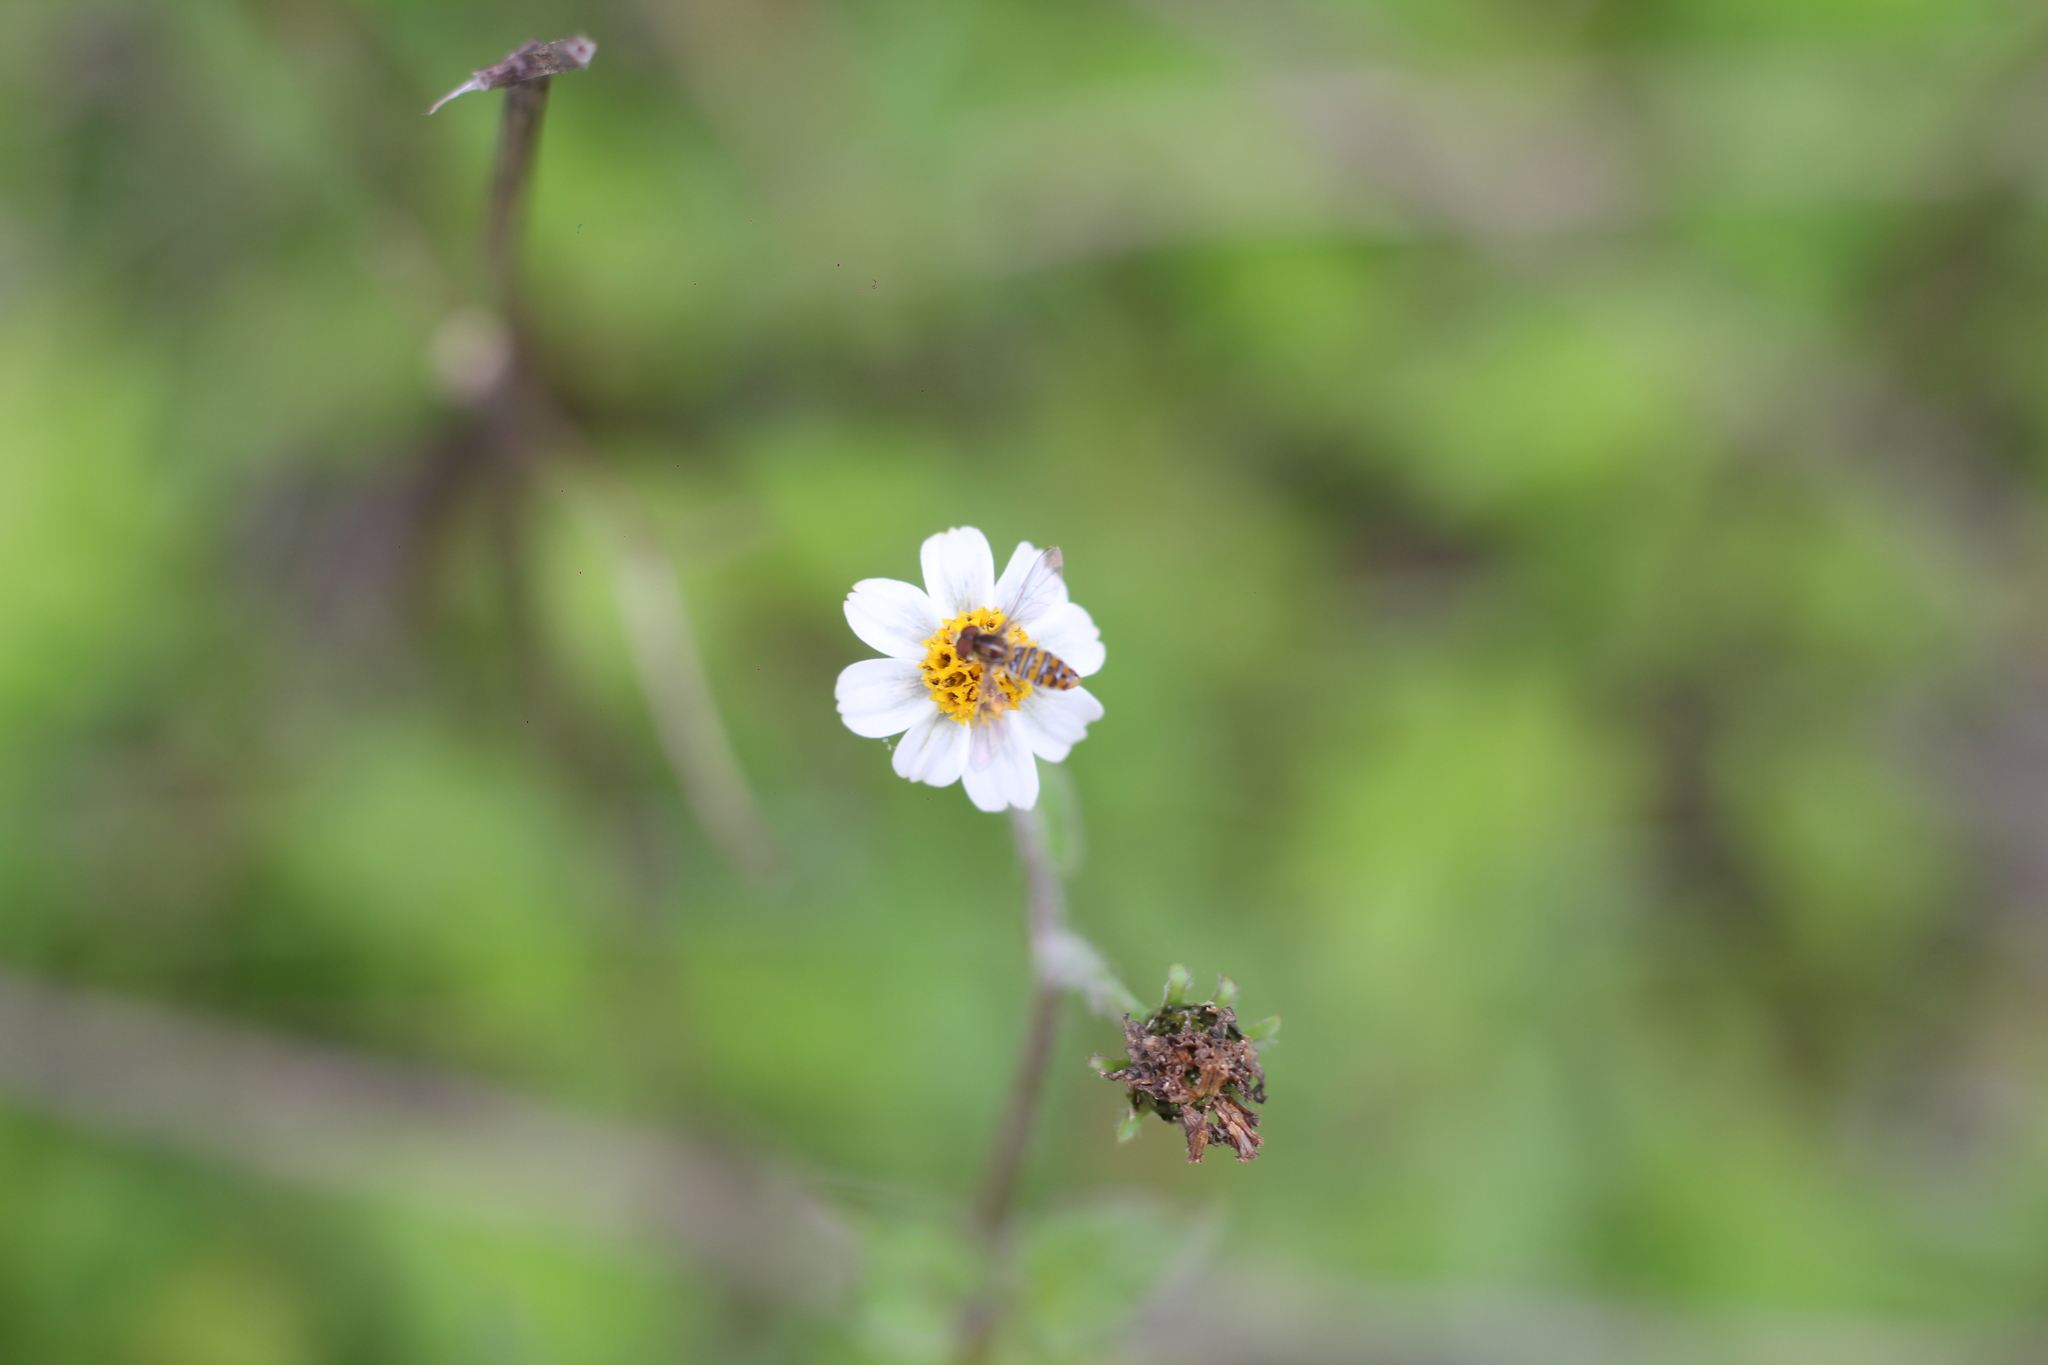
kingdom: Animalia
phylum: Arthropoda
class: Insecta
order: Diptera
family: Syrphidae
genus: Toxomerus
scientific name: Toxomerus
